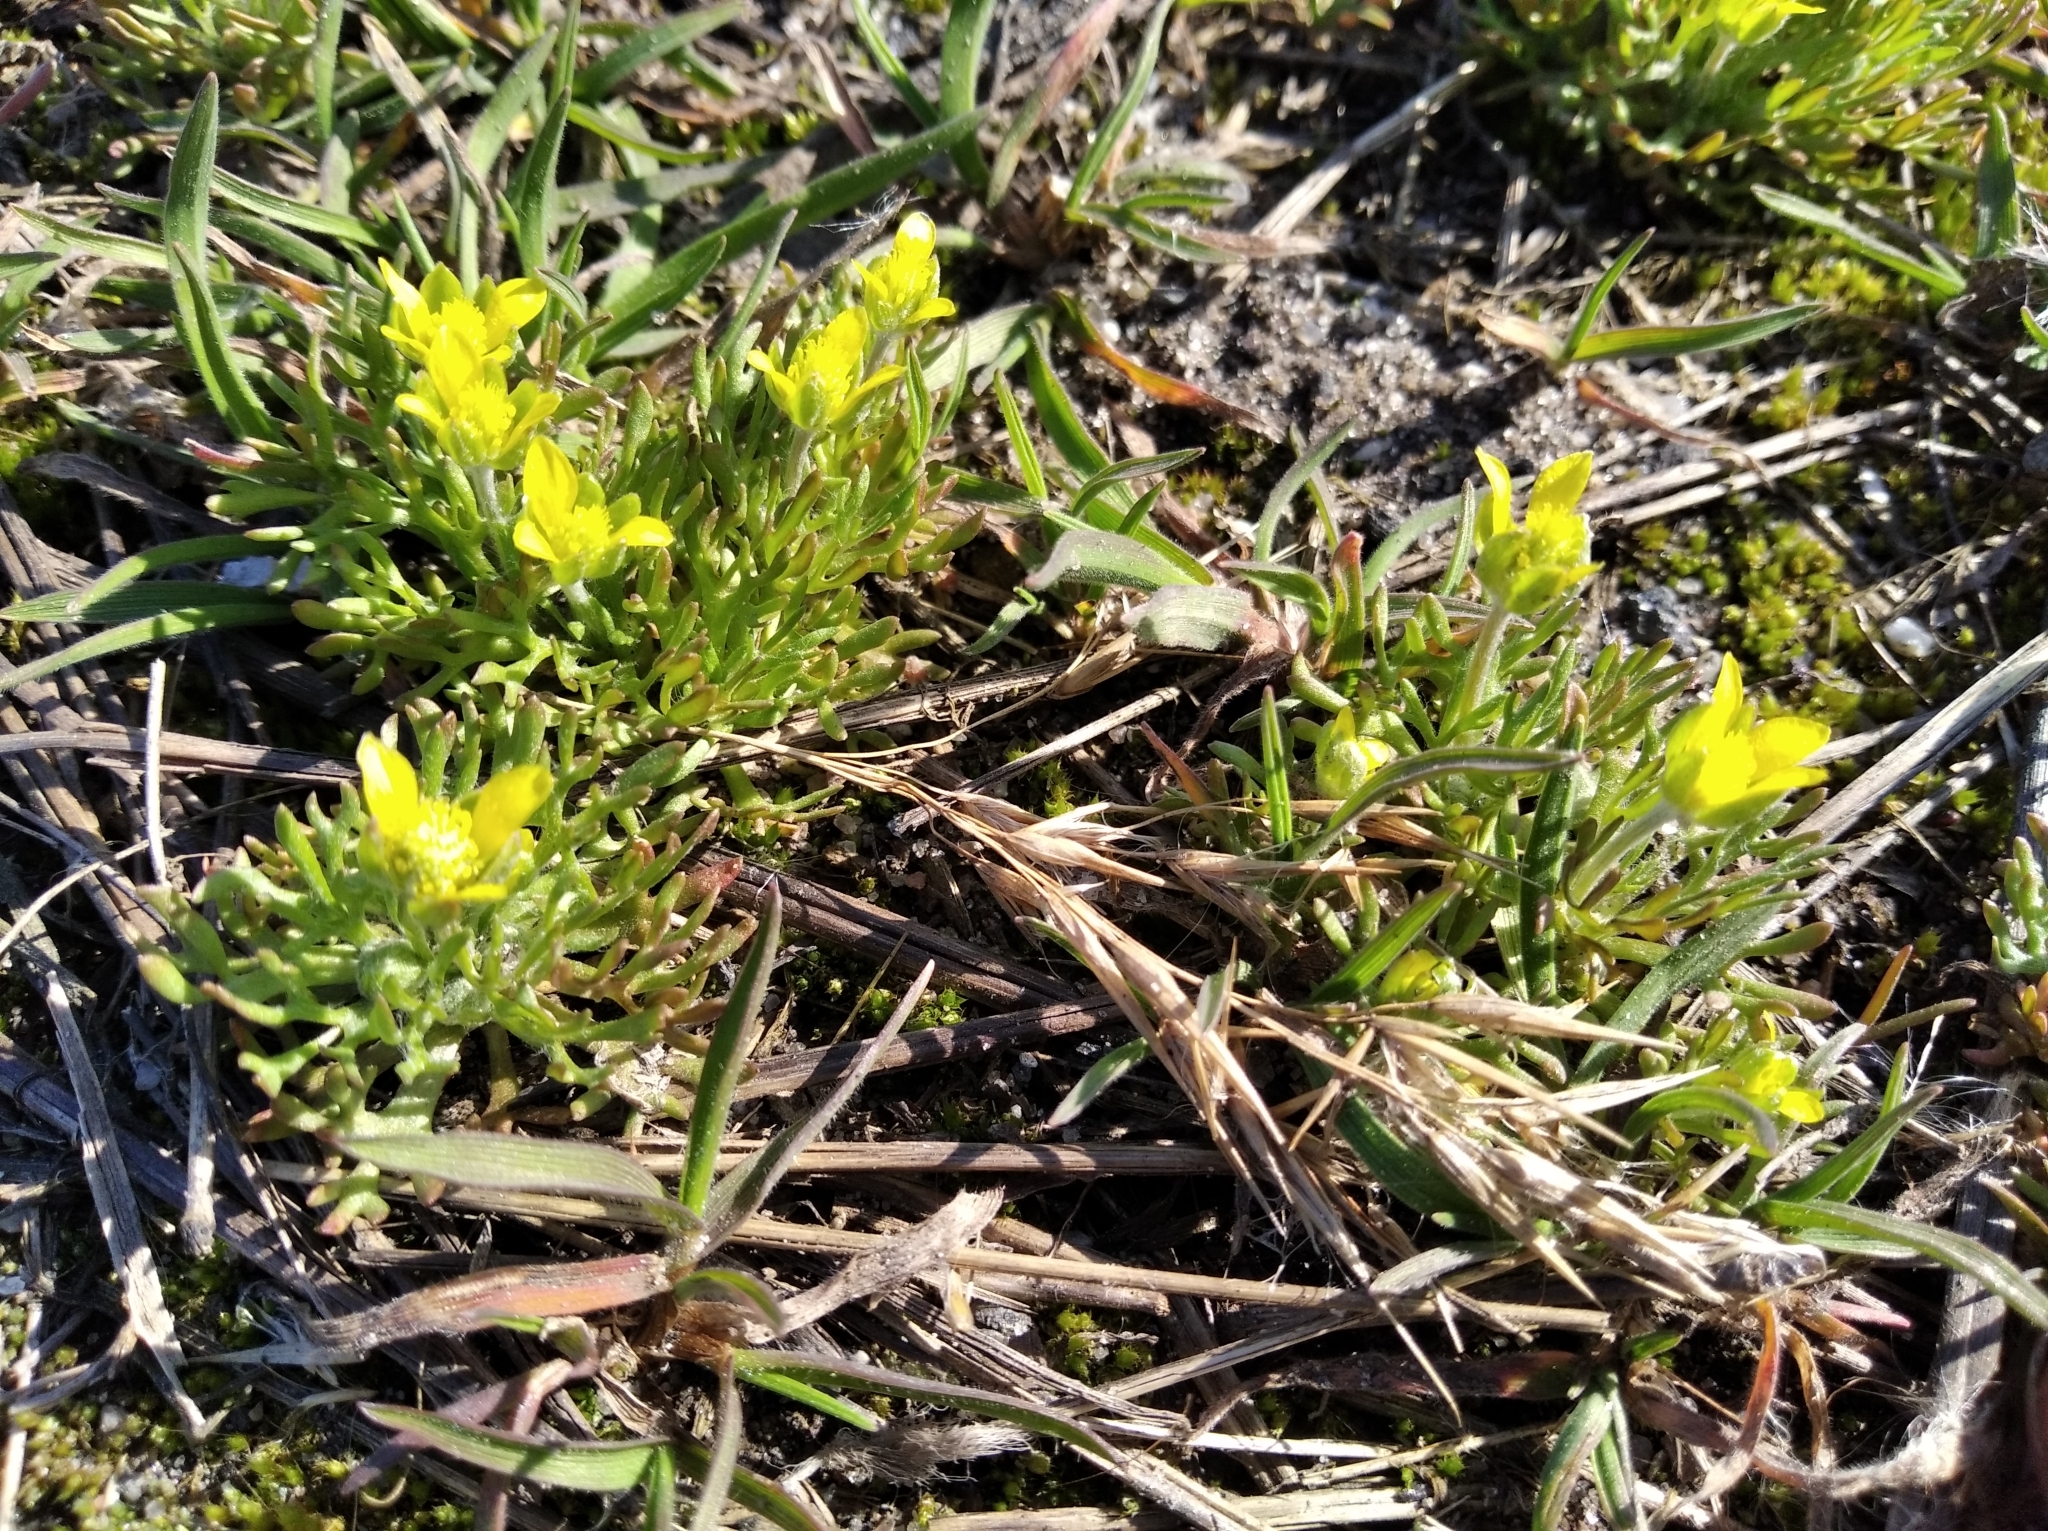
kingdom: Plantae
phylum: Tracheophyta
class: Magnoliopsida
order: Ranunculales
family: Ranunculaceae
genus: Ceratocephala
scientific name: Ceratocephala orthoceras
